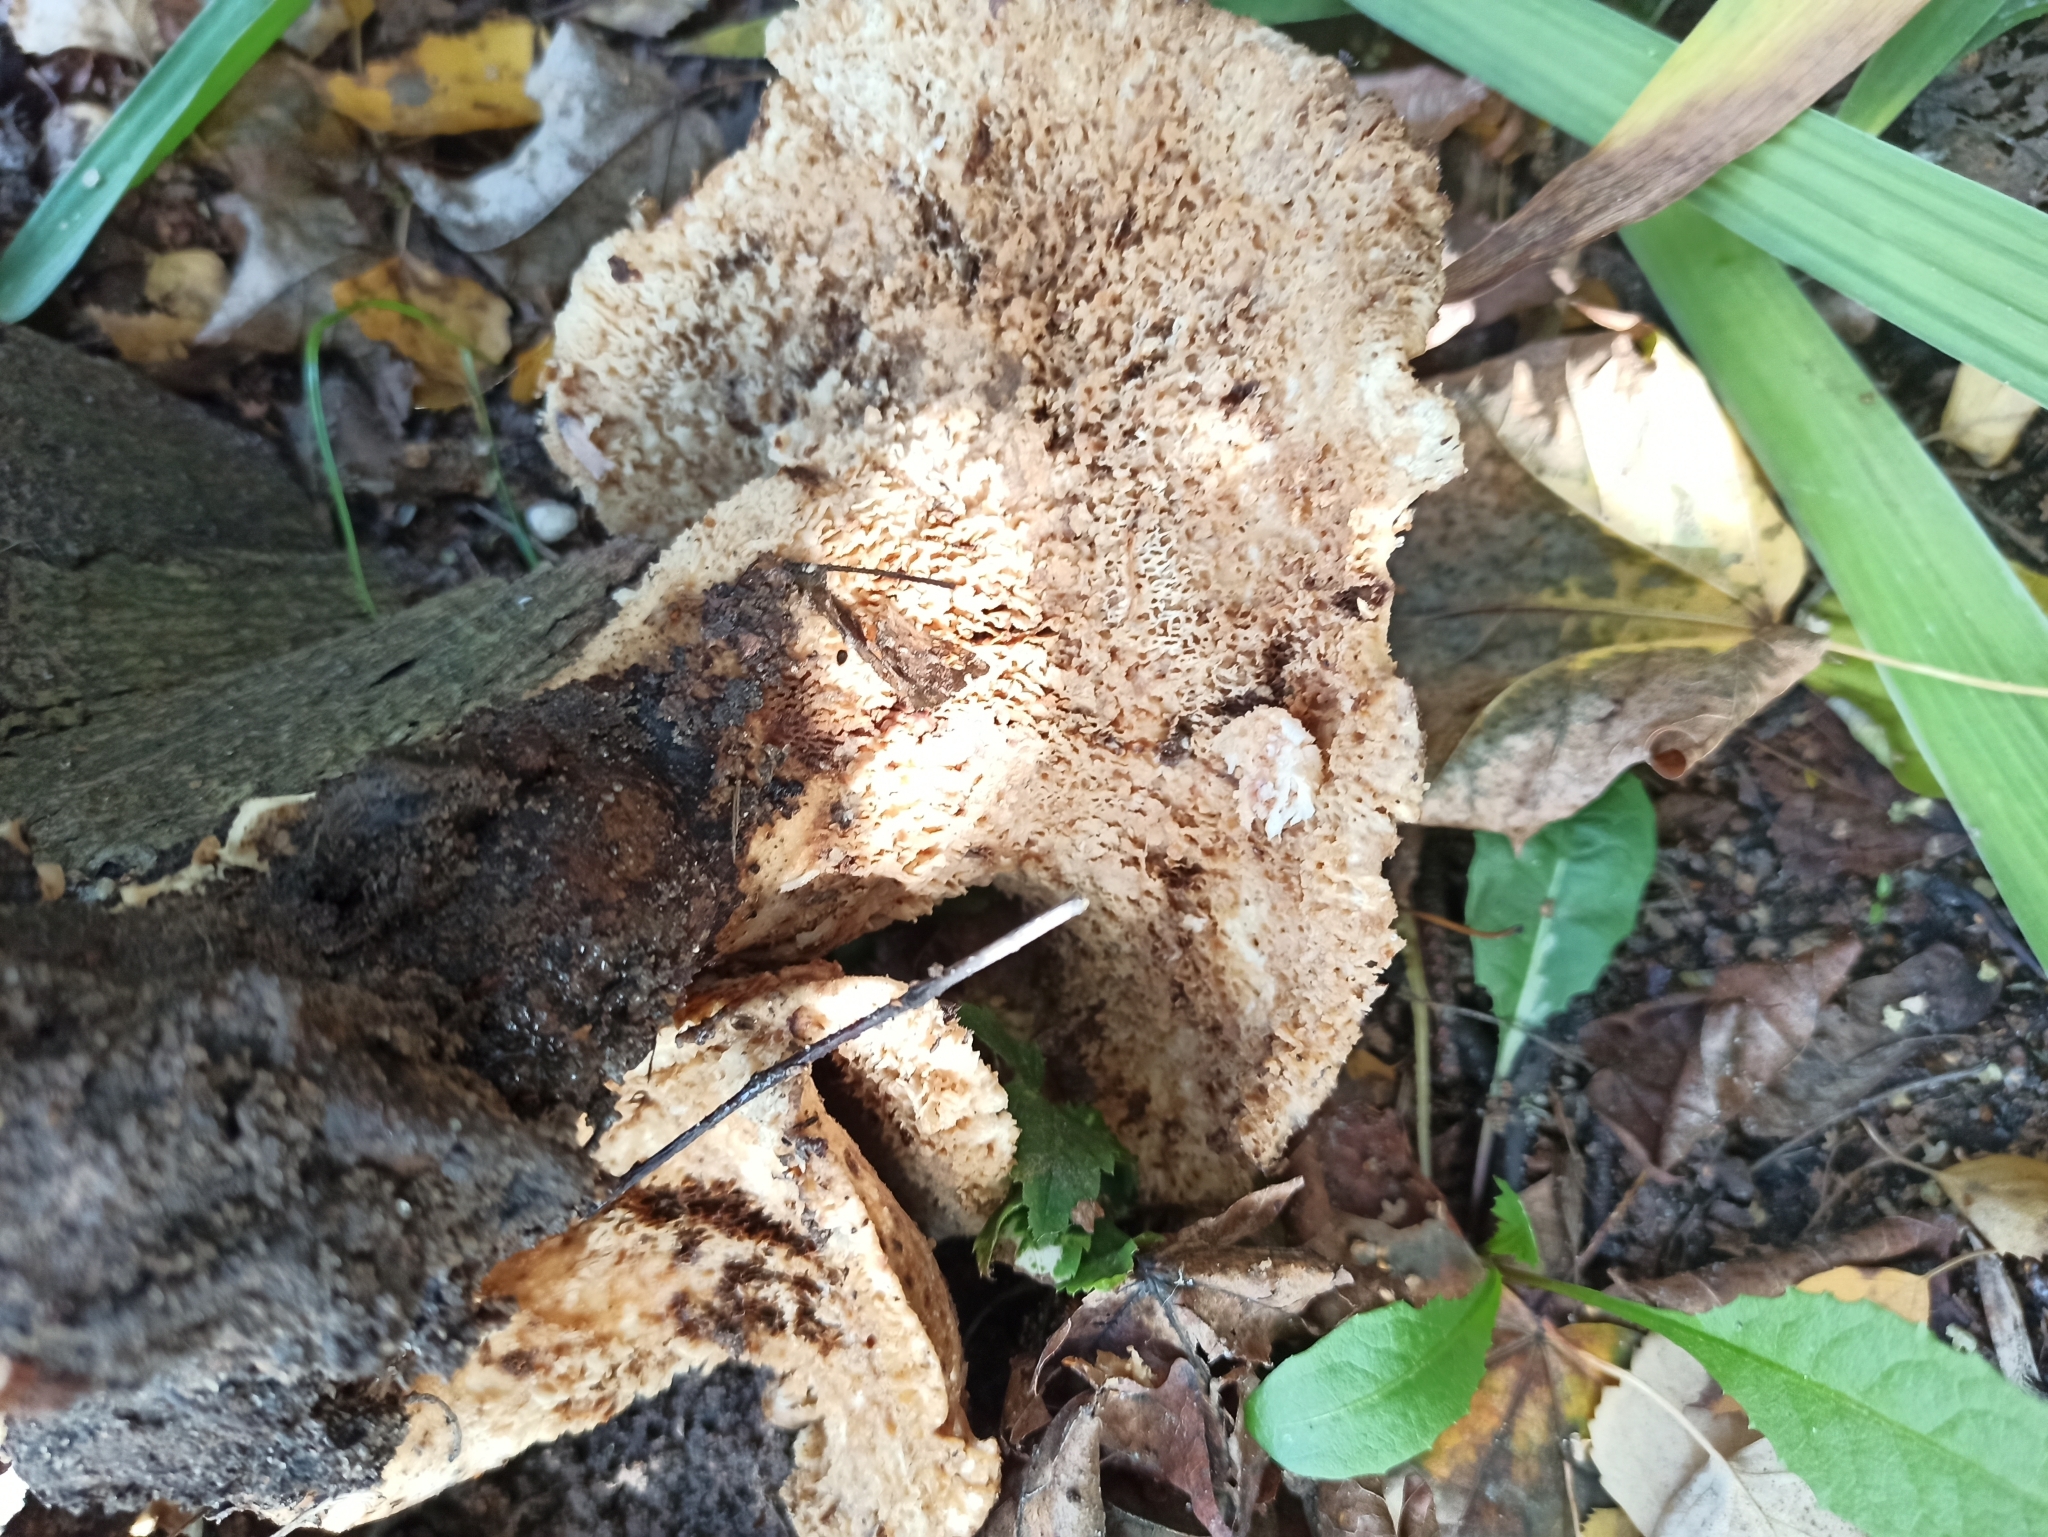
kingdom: Fungi
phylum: Basidiomycota
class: Agaricomycetes
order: Polyporales
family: Polyporaceae
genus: Cerioporus
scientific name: Cerioporus squamosus
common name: Dryad's saddle
